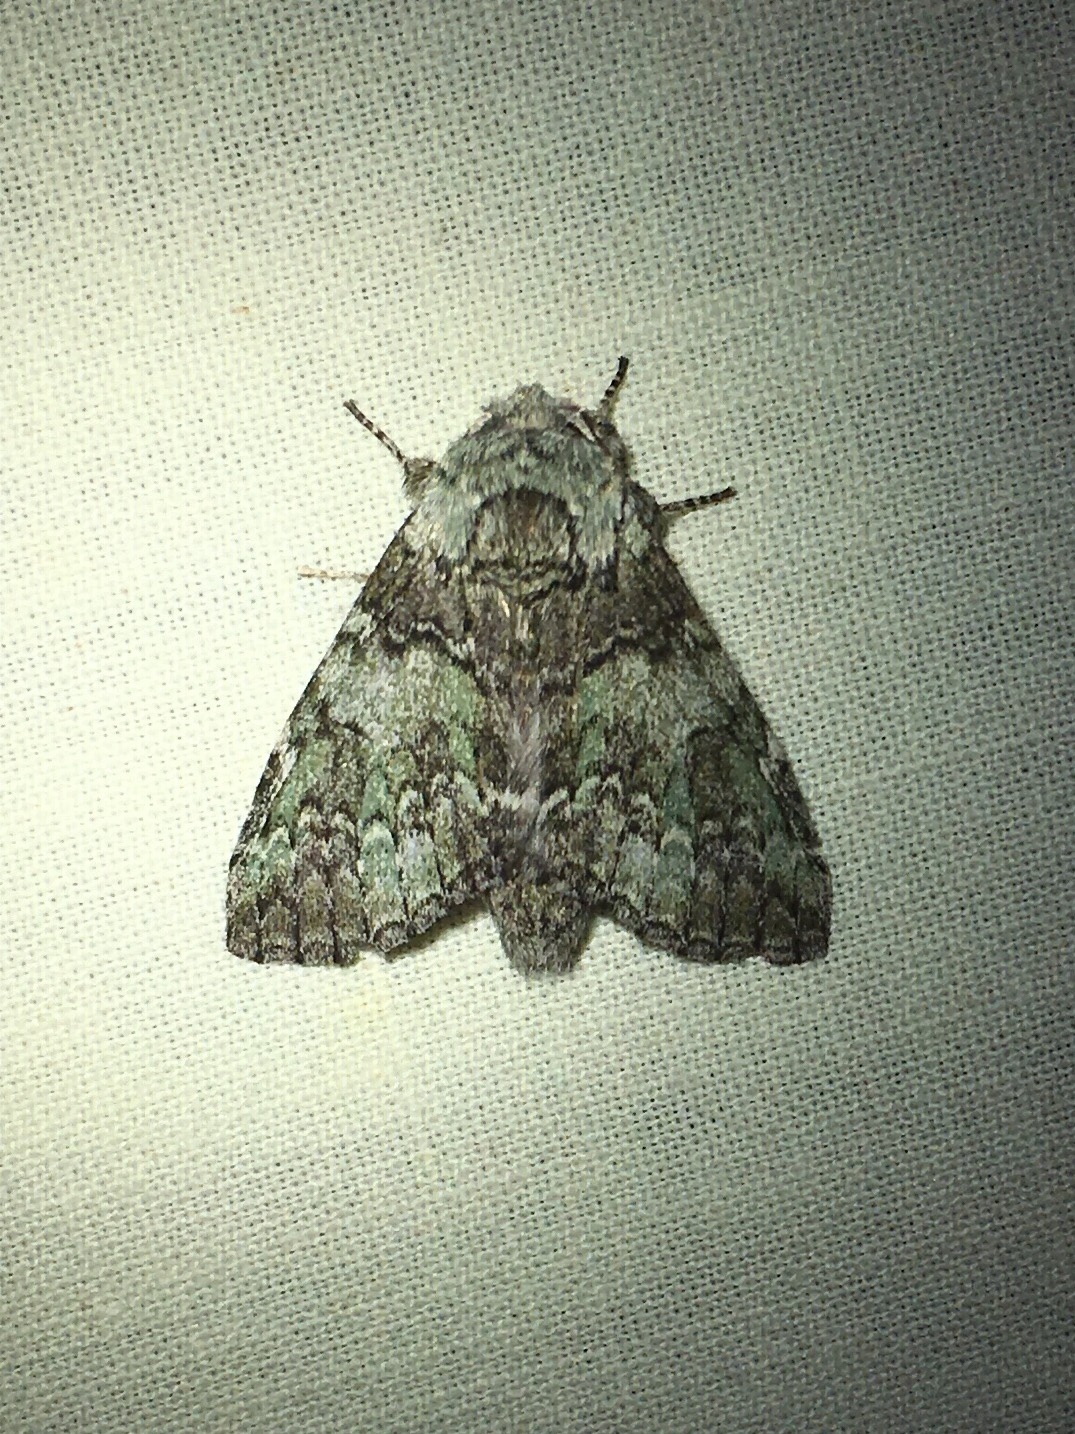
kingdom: Animalia
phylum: Arthropoda
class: Insecta
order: Lepidoptera
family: Notodontidae
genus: Macrurocampa
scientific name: Macrurocampa marthesia
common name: Mottled prominent
